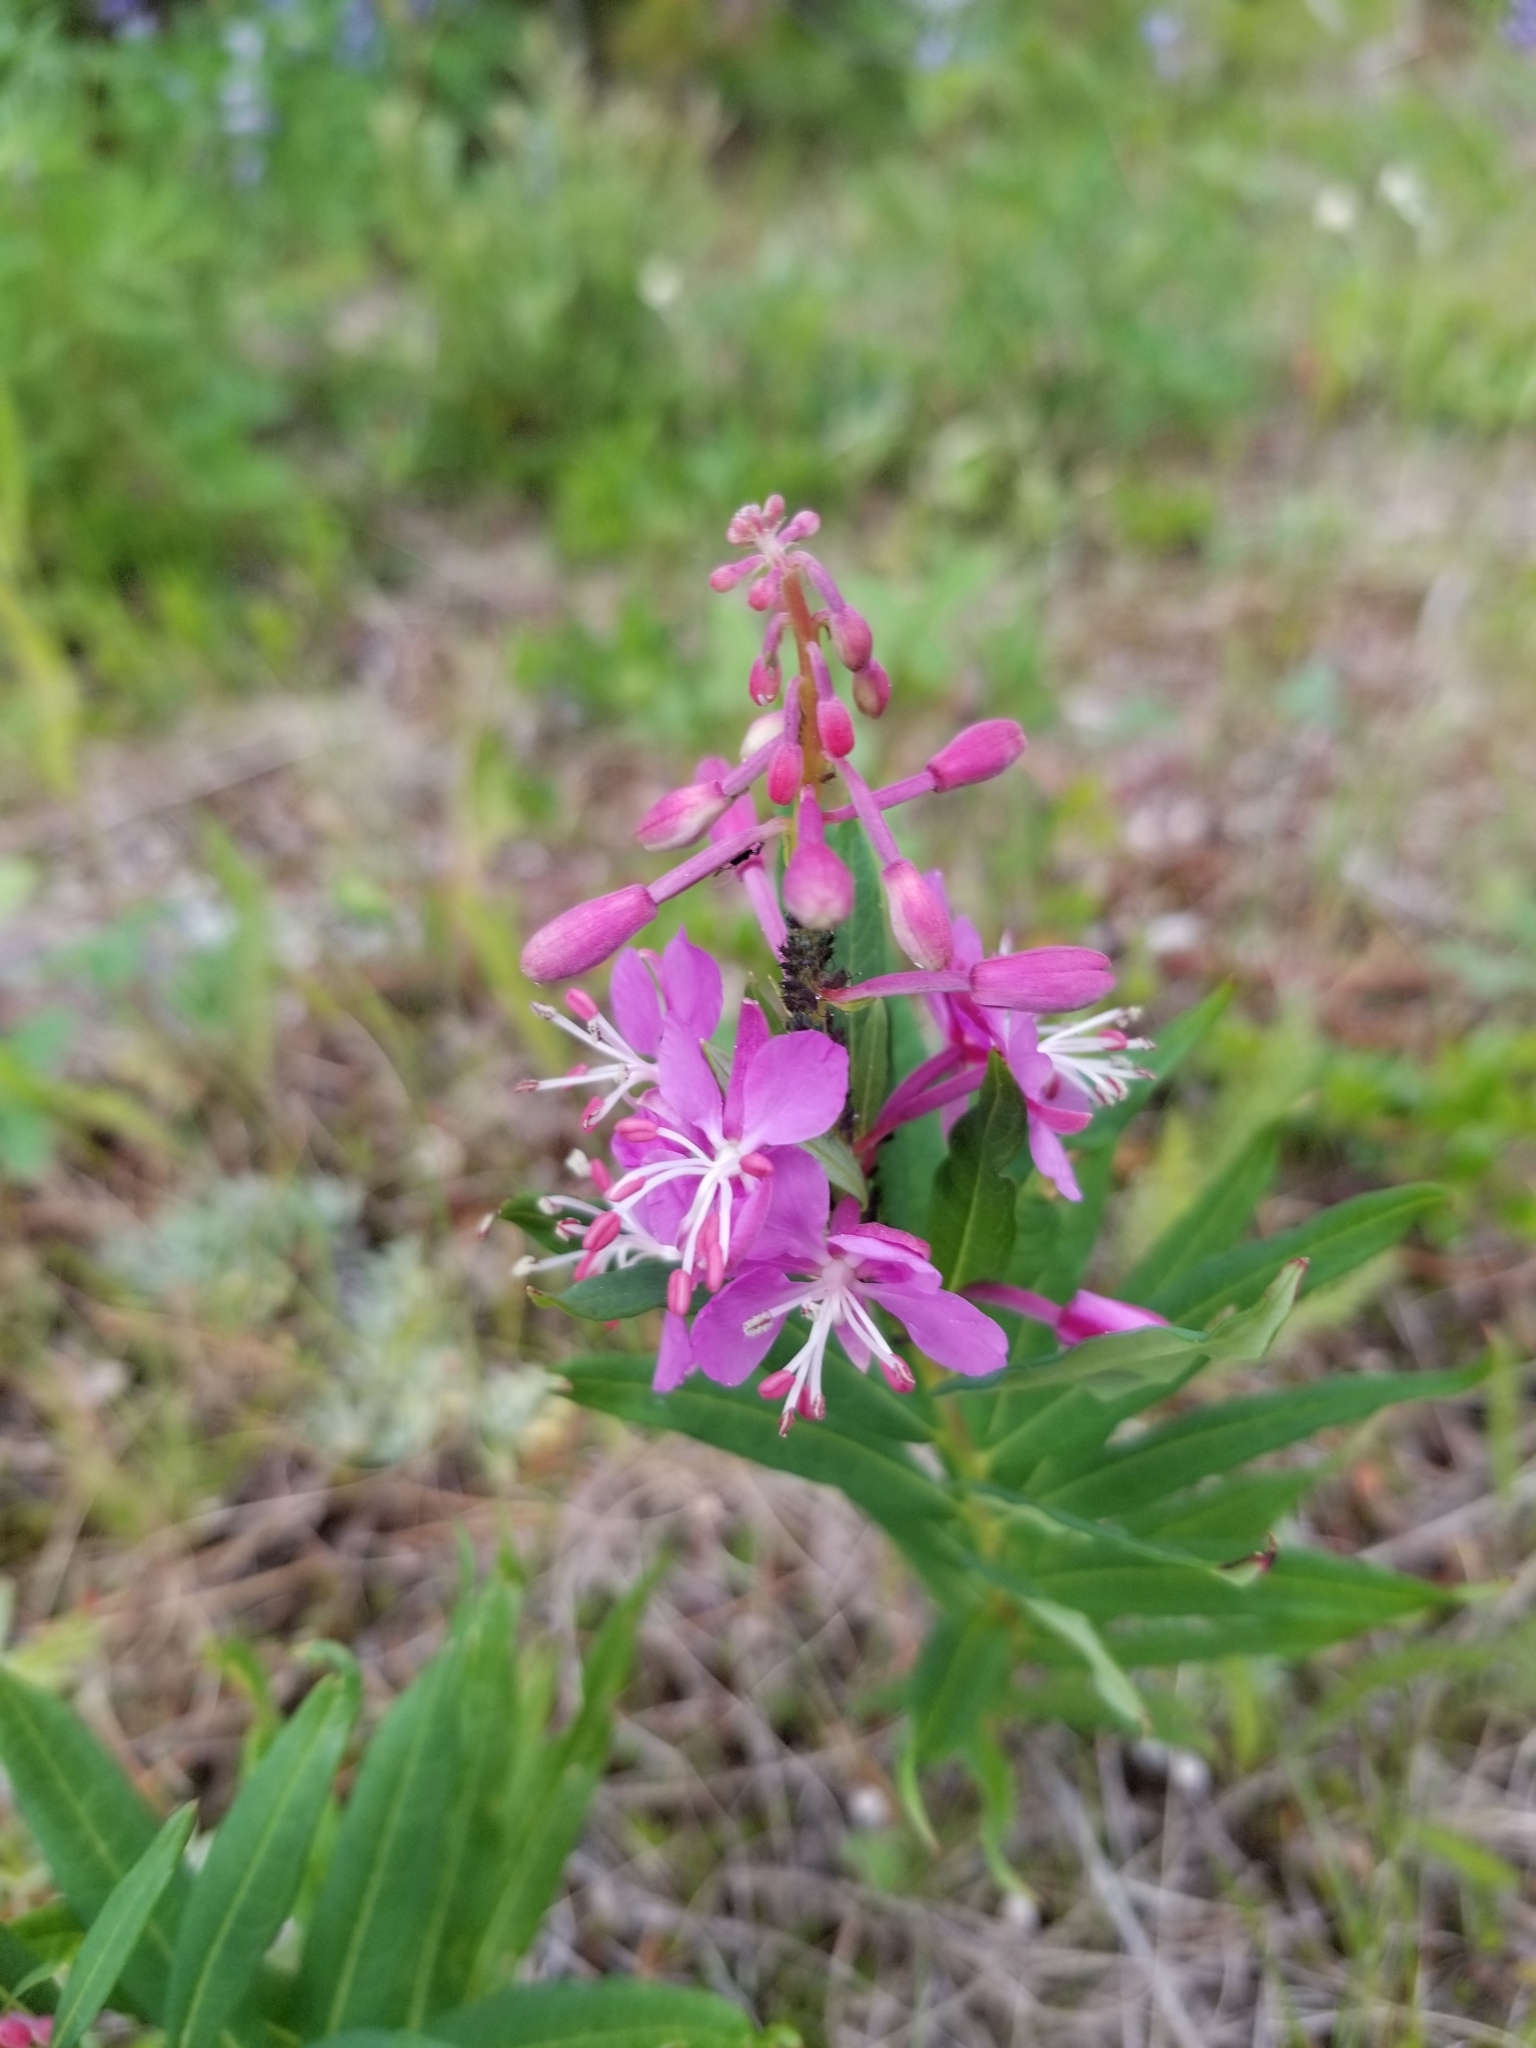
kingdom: Plantae
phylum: Tracheophyta
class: Magnoliopsida
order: Myrtales
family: Onagraceae
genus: Chamaenerion
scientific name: Chamaenerion angustifolium
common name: Fireweed
